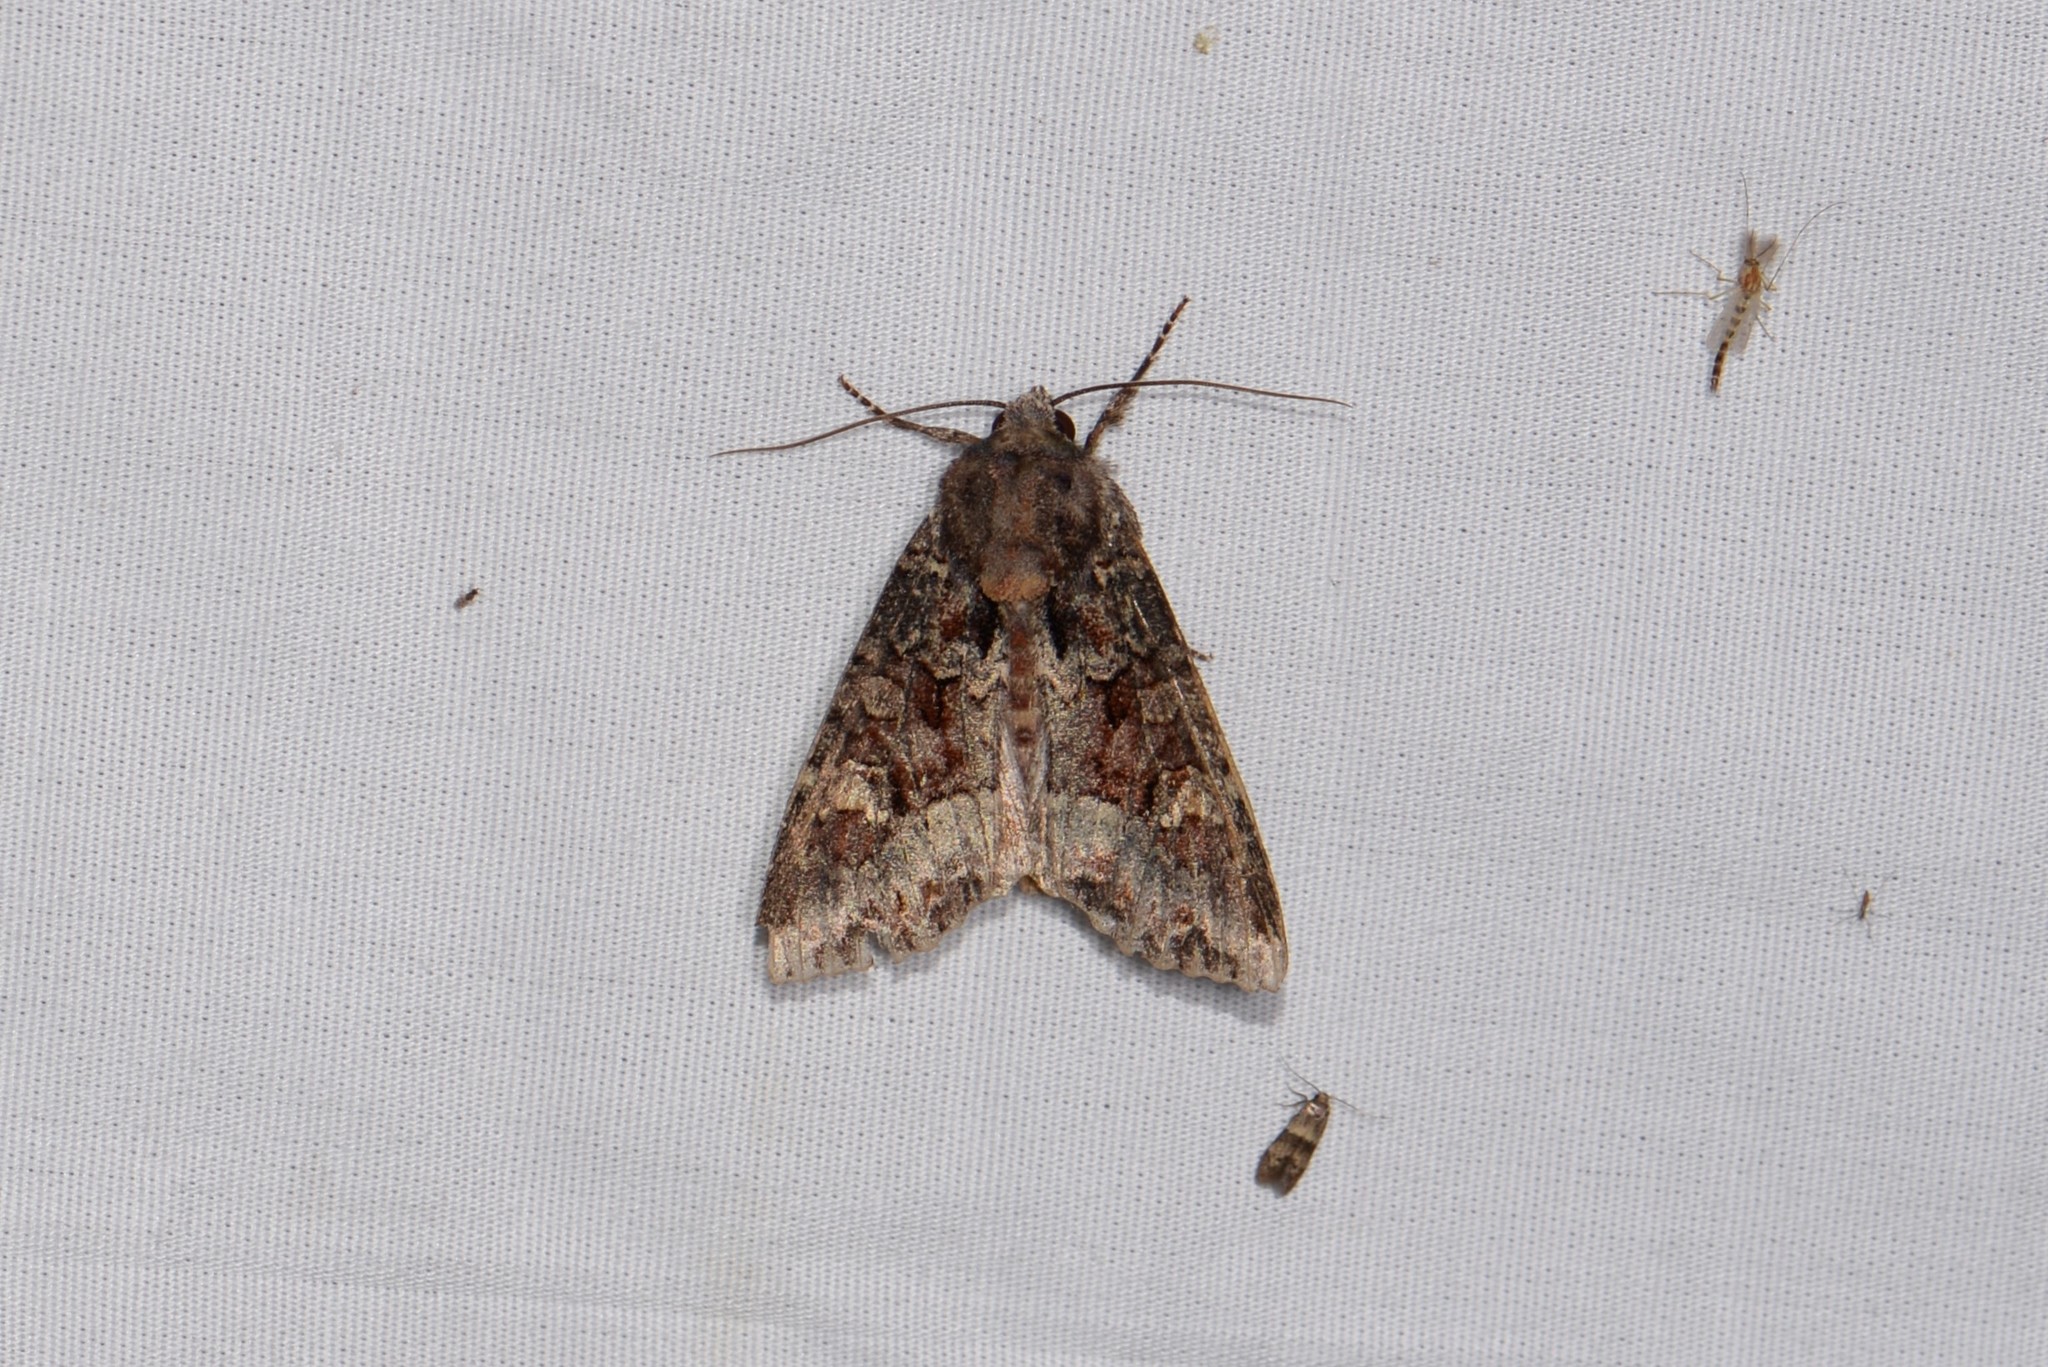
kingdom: Animalia
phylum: Arthropoda
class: Insecta
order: Lepidoptera
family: Noctuidae
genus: Apamea
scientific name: Apamea amputatrix
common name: Yellow-headed cutworm moth
